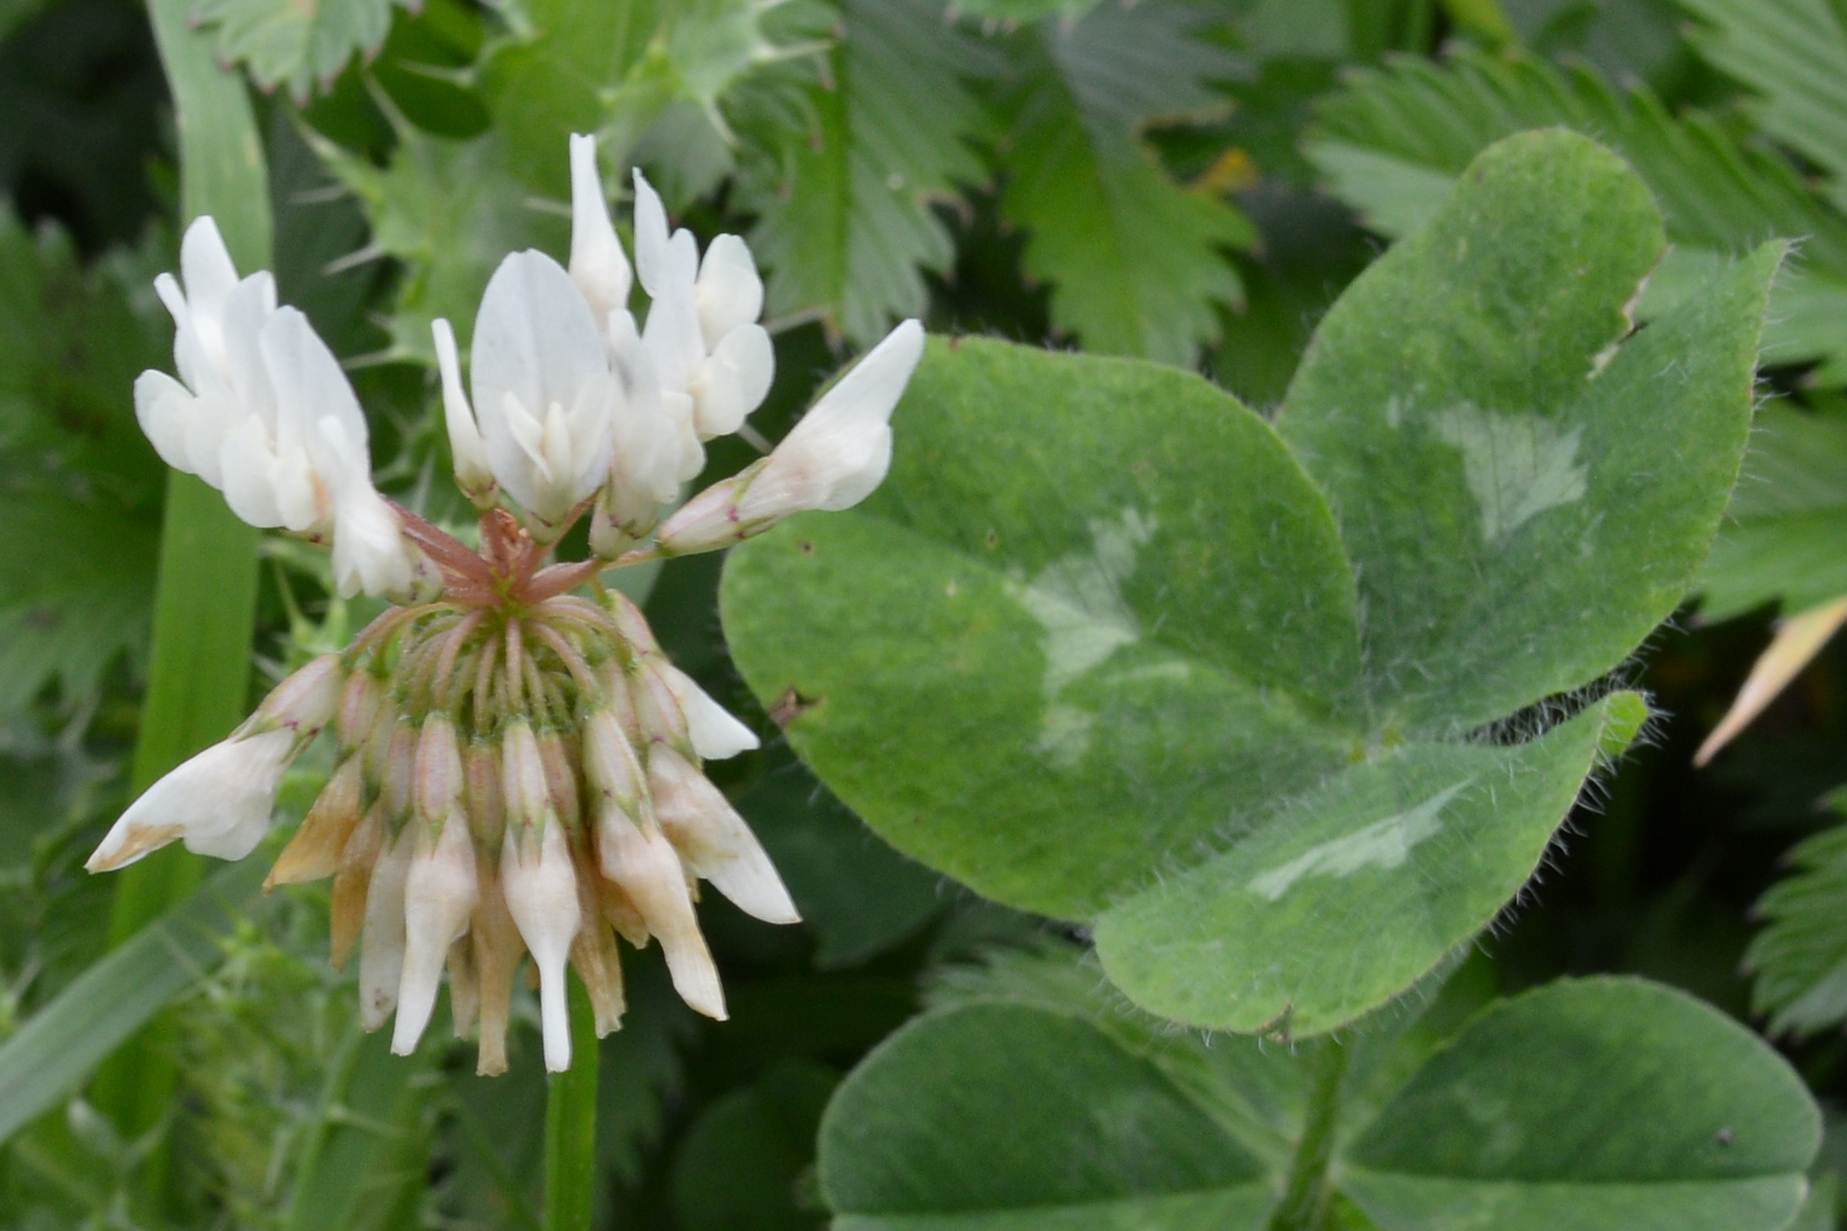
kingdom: Plantae
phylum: Tracheophyta
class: Magnoliopsida
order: Fabales
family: Fabaceae
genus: Trifolium
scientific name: Trifolium repens
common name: White clover
